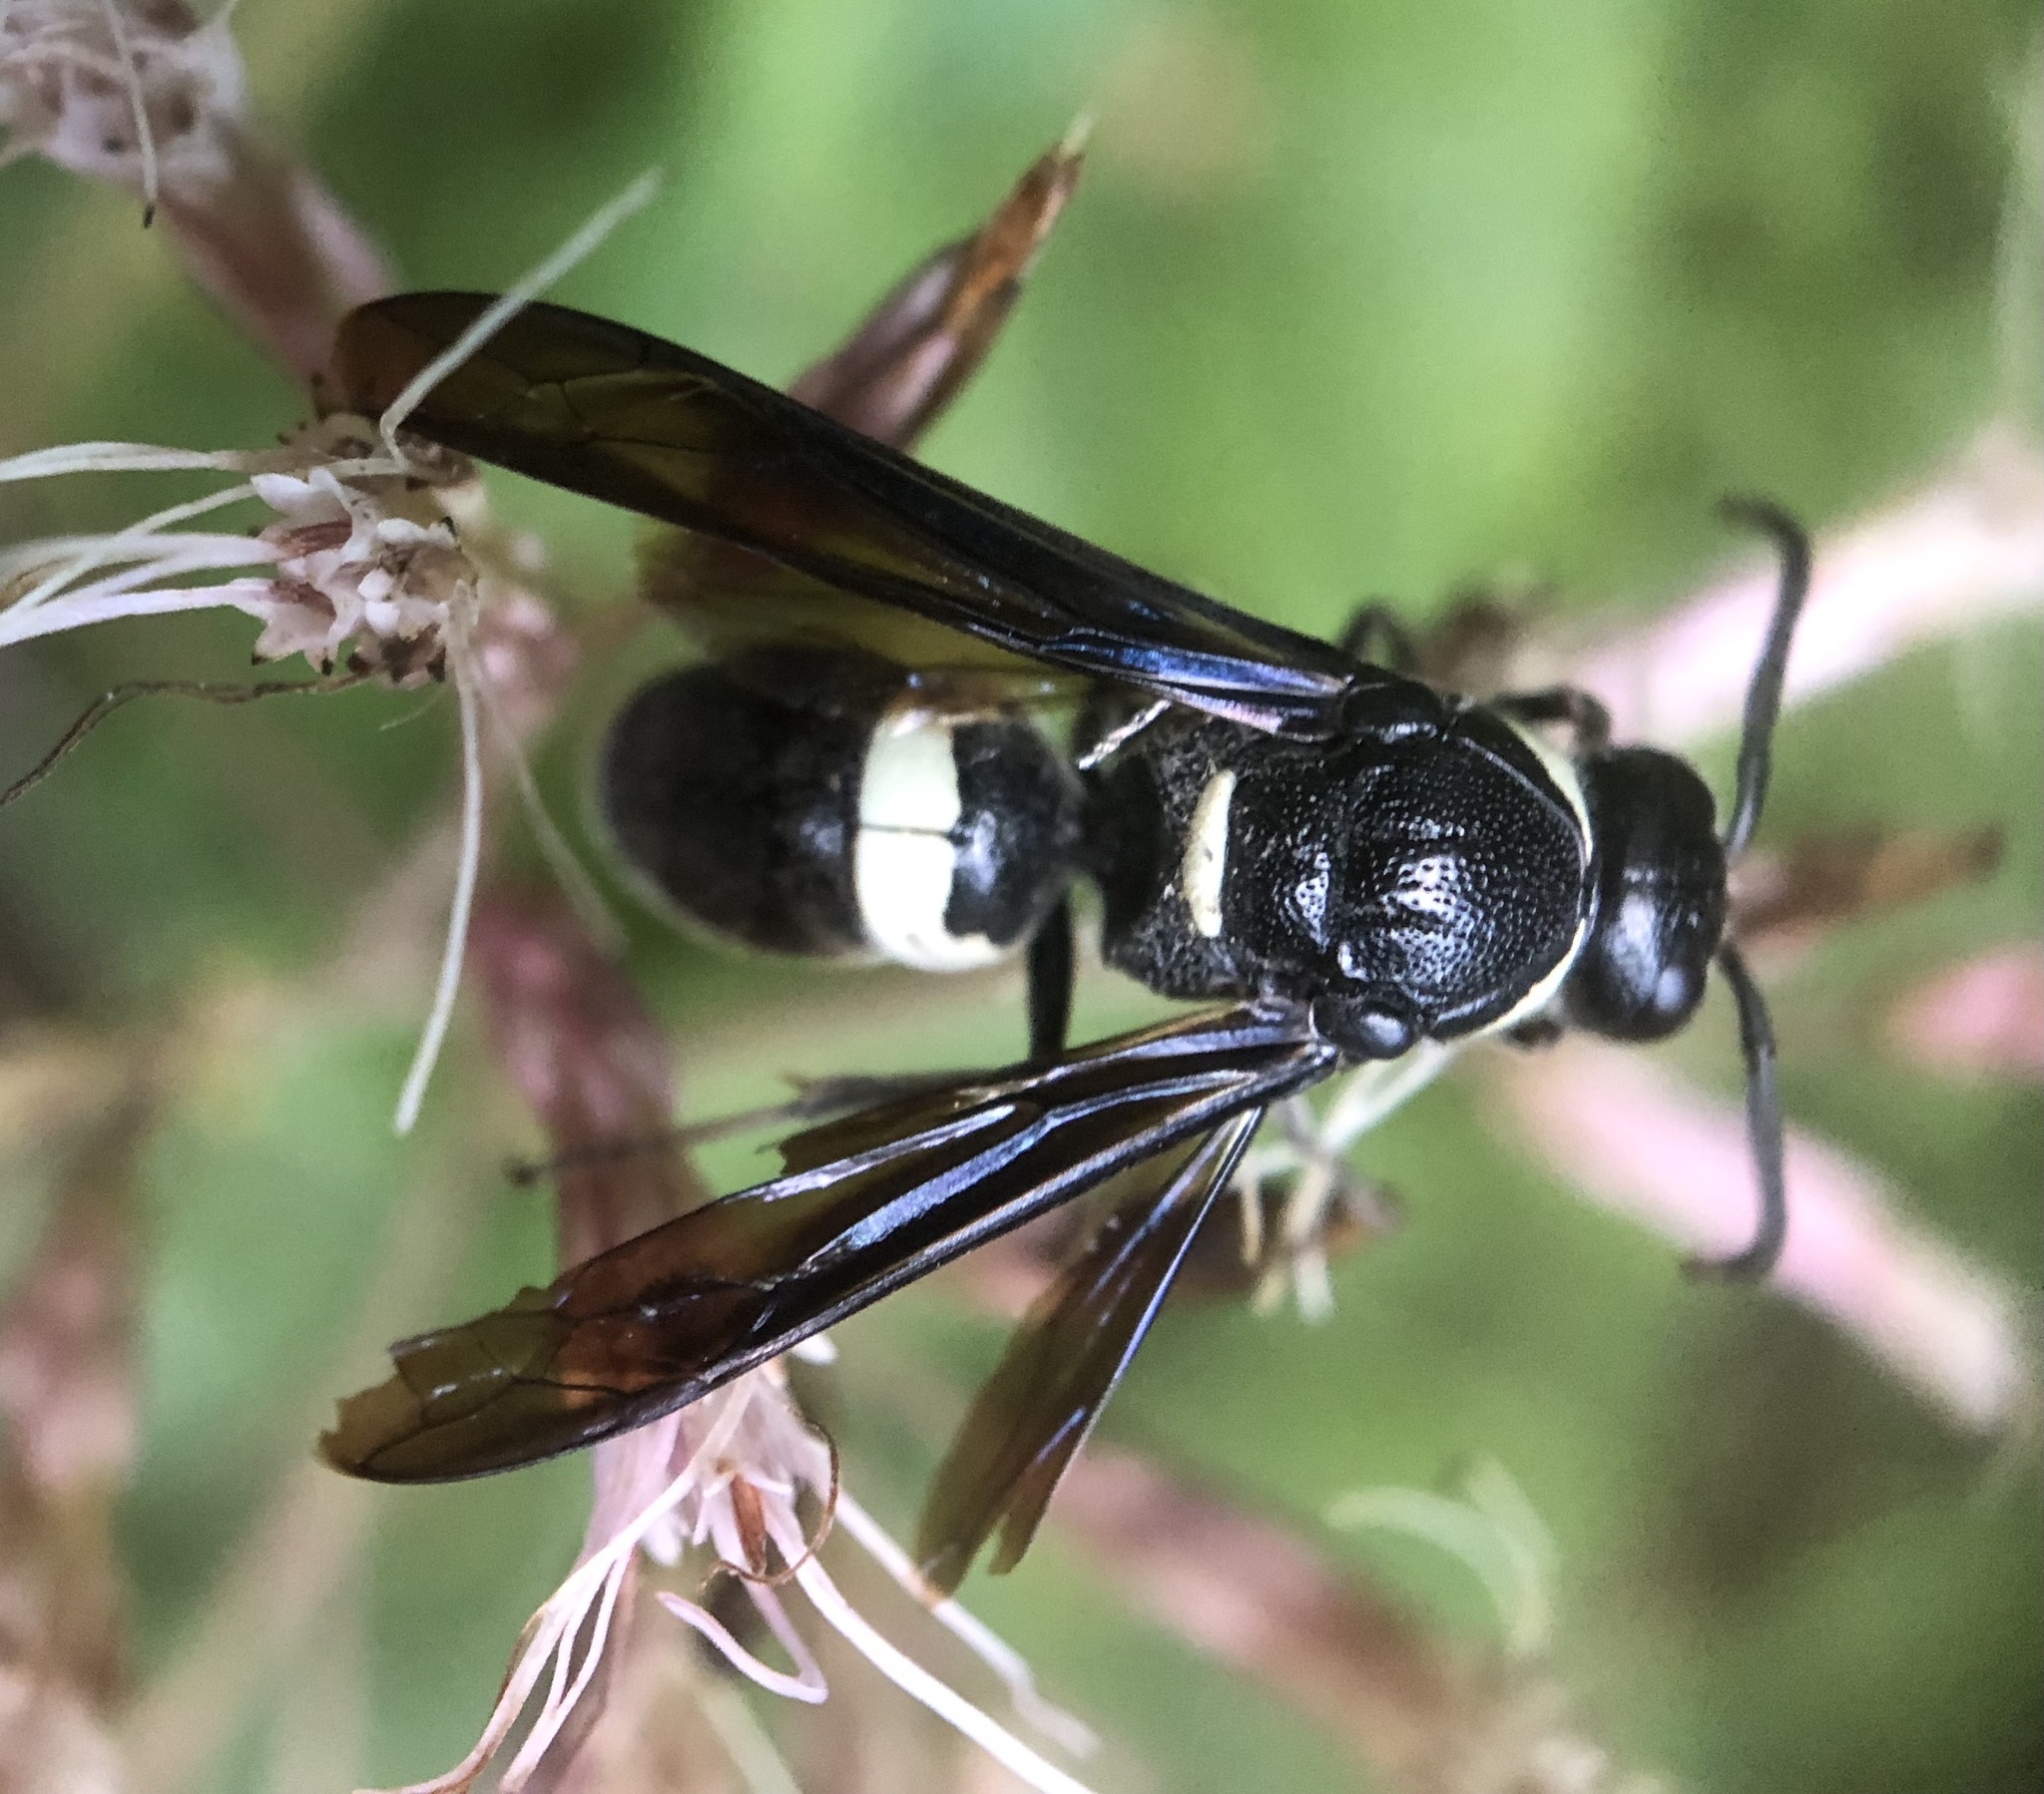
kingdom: Animalia
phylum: Arthropoda
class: Insecta
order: Hymenoptera
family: Eumenidae
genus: Monobia
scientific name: Monobia quadridens
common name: Four-toothed mason wasp
